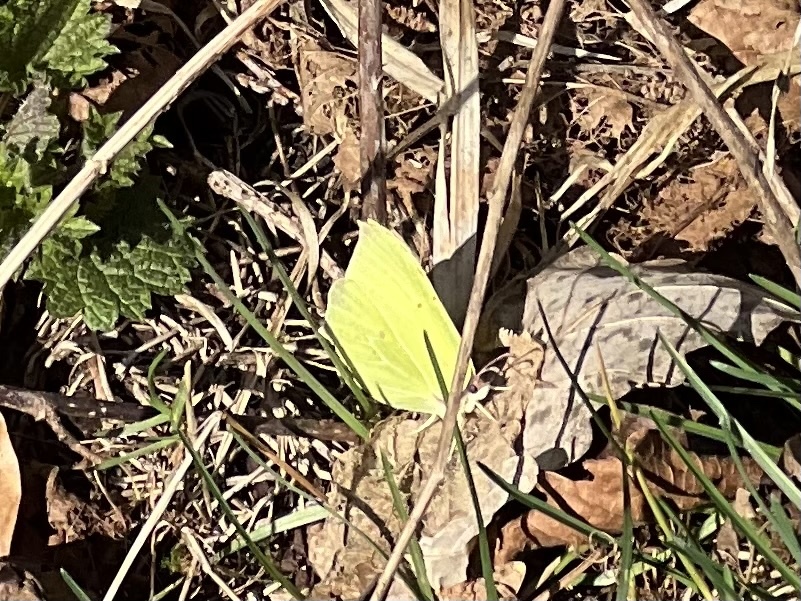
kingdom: Animalia
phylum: Arthropoda
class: Insecta
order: Lepidoptera
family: Pieridae
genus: Gonepteryx
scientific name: Gonepteryx rhamni
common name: Brimstone
